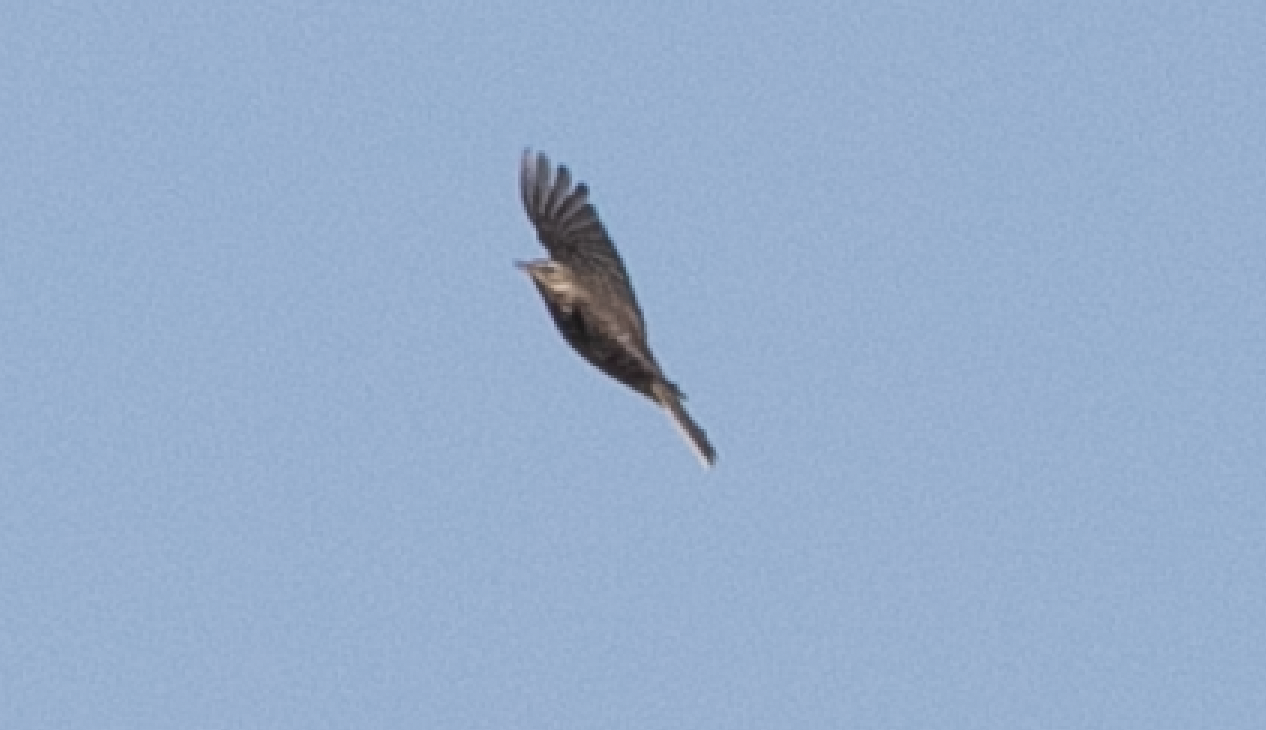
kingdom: Animalia
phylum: Chordata
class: Aves
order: Passeriformes
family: Motacillidae
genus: Anthus
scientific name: Anthus spinoletta
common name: Water pipit
